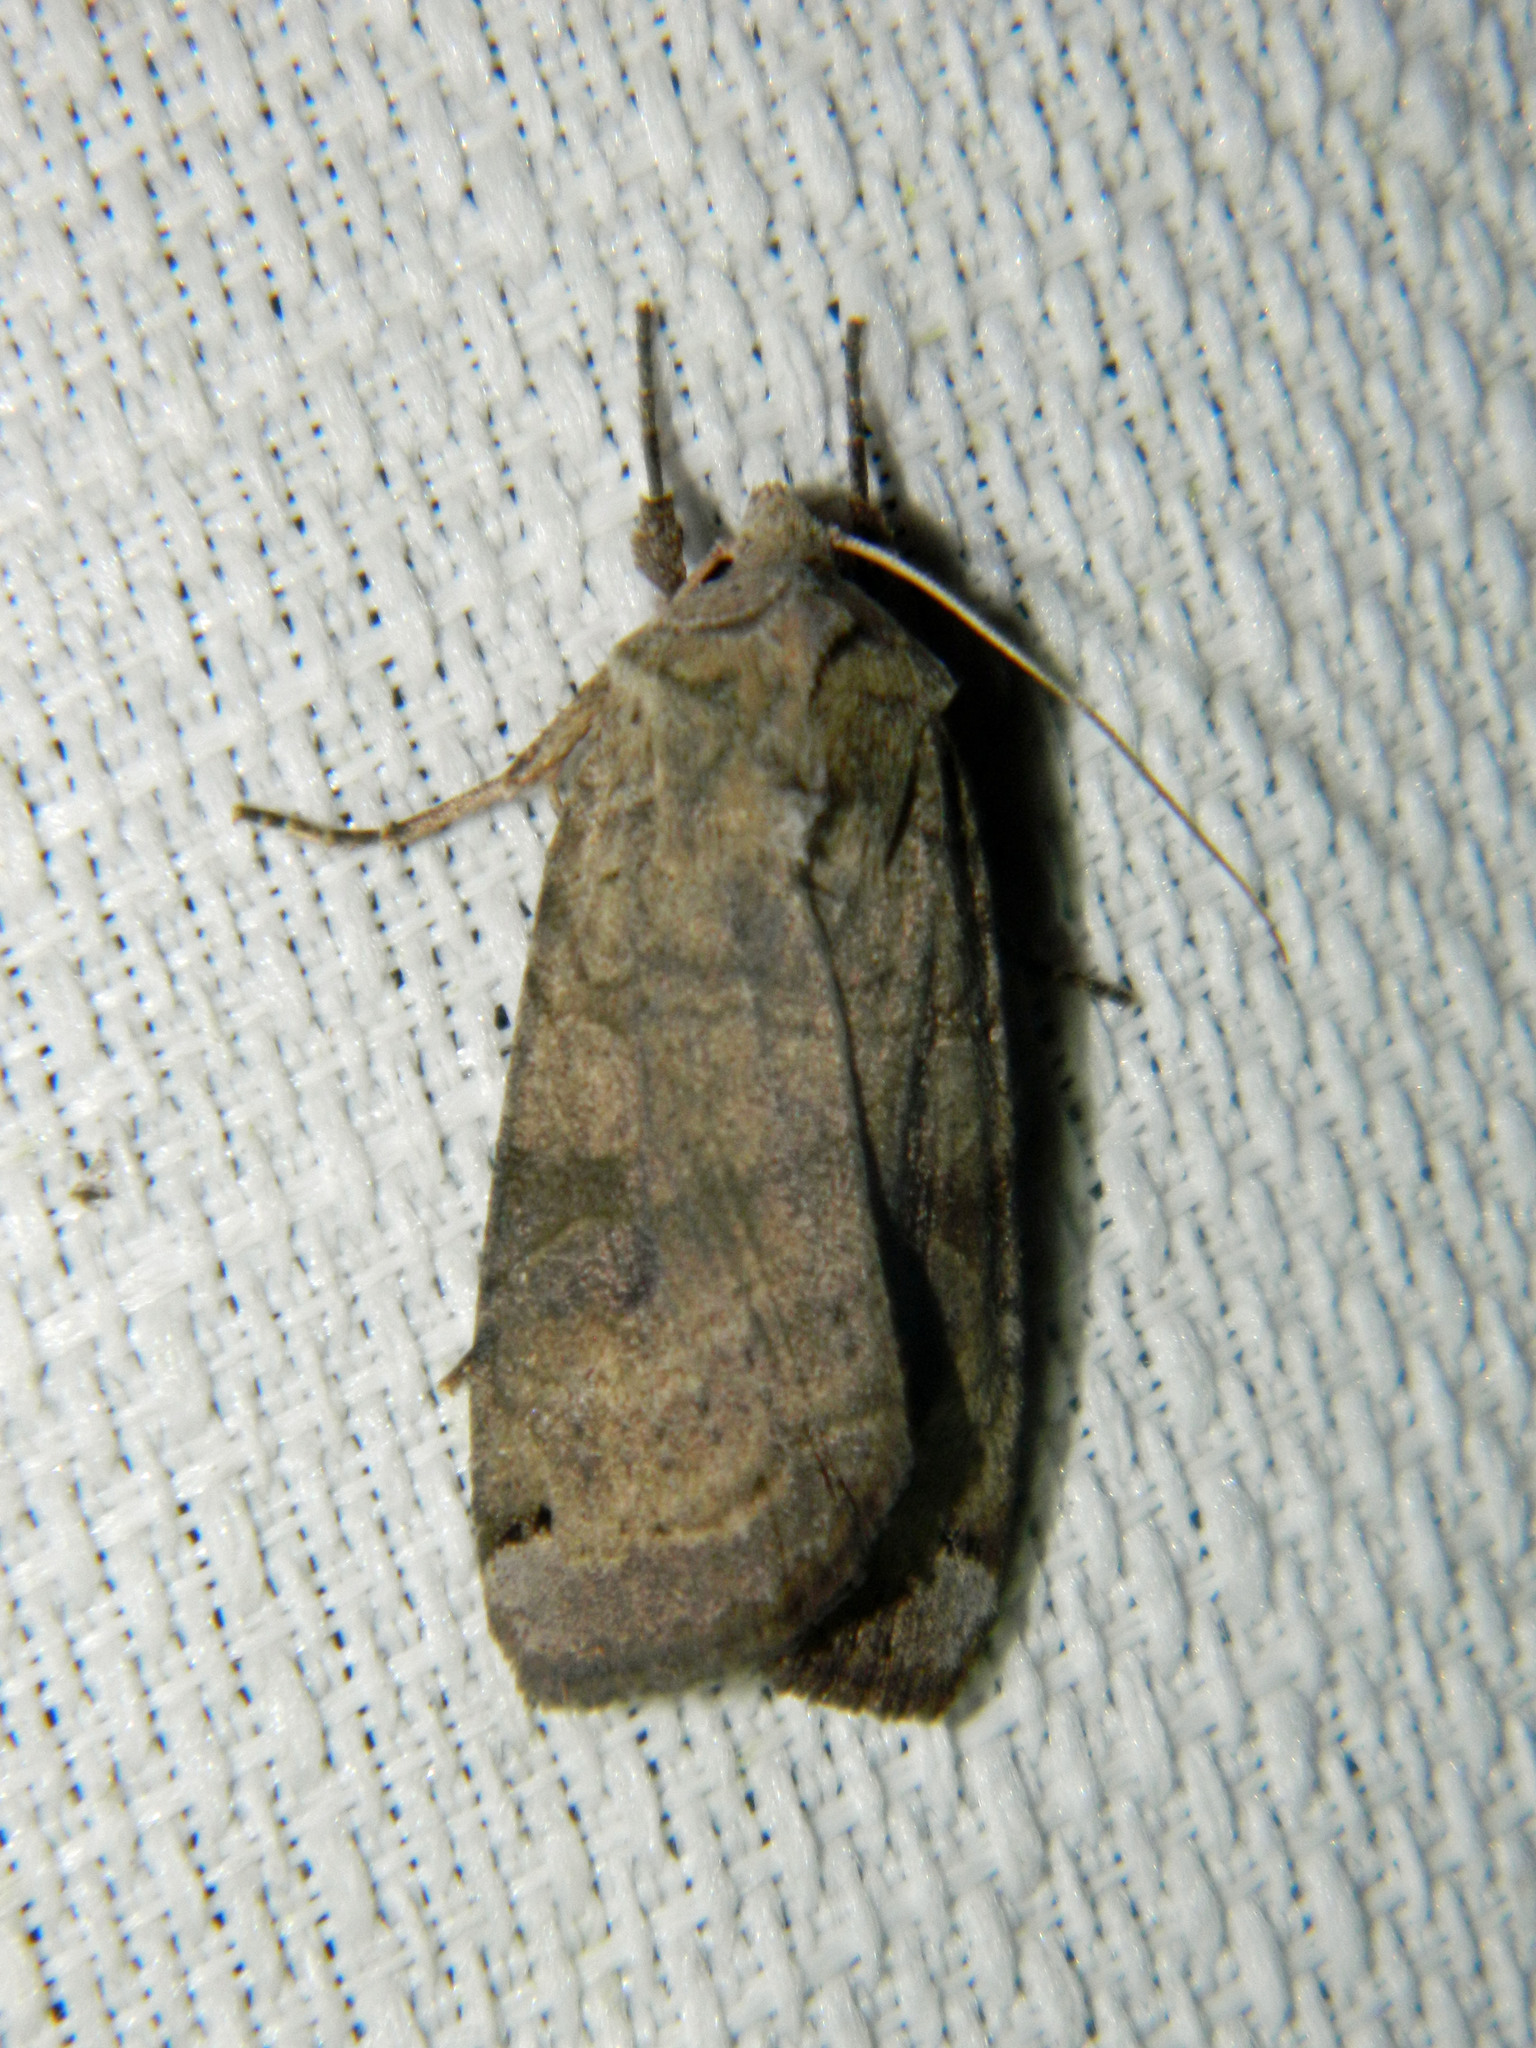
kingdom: Animalia
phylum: Arthropoda
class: Insecta
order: Lepidoptera
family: Noctuidae
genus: Xestia
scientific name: Xestia smithii
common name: Smith's dart
